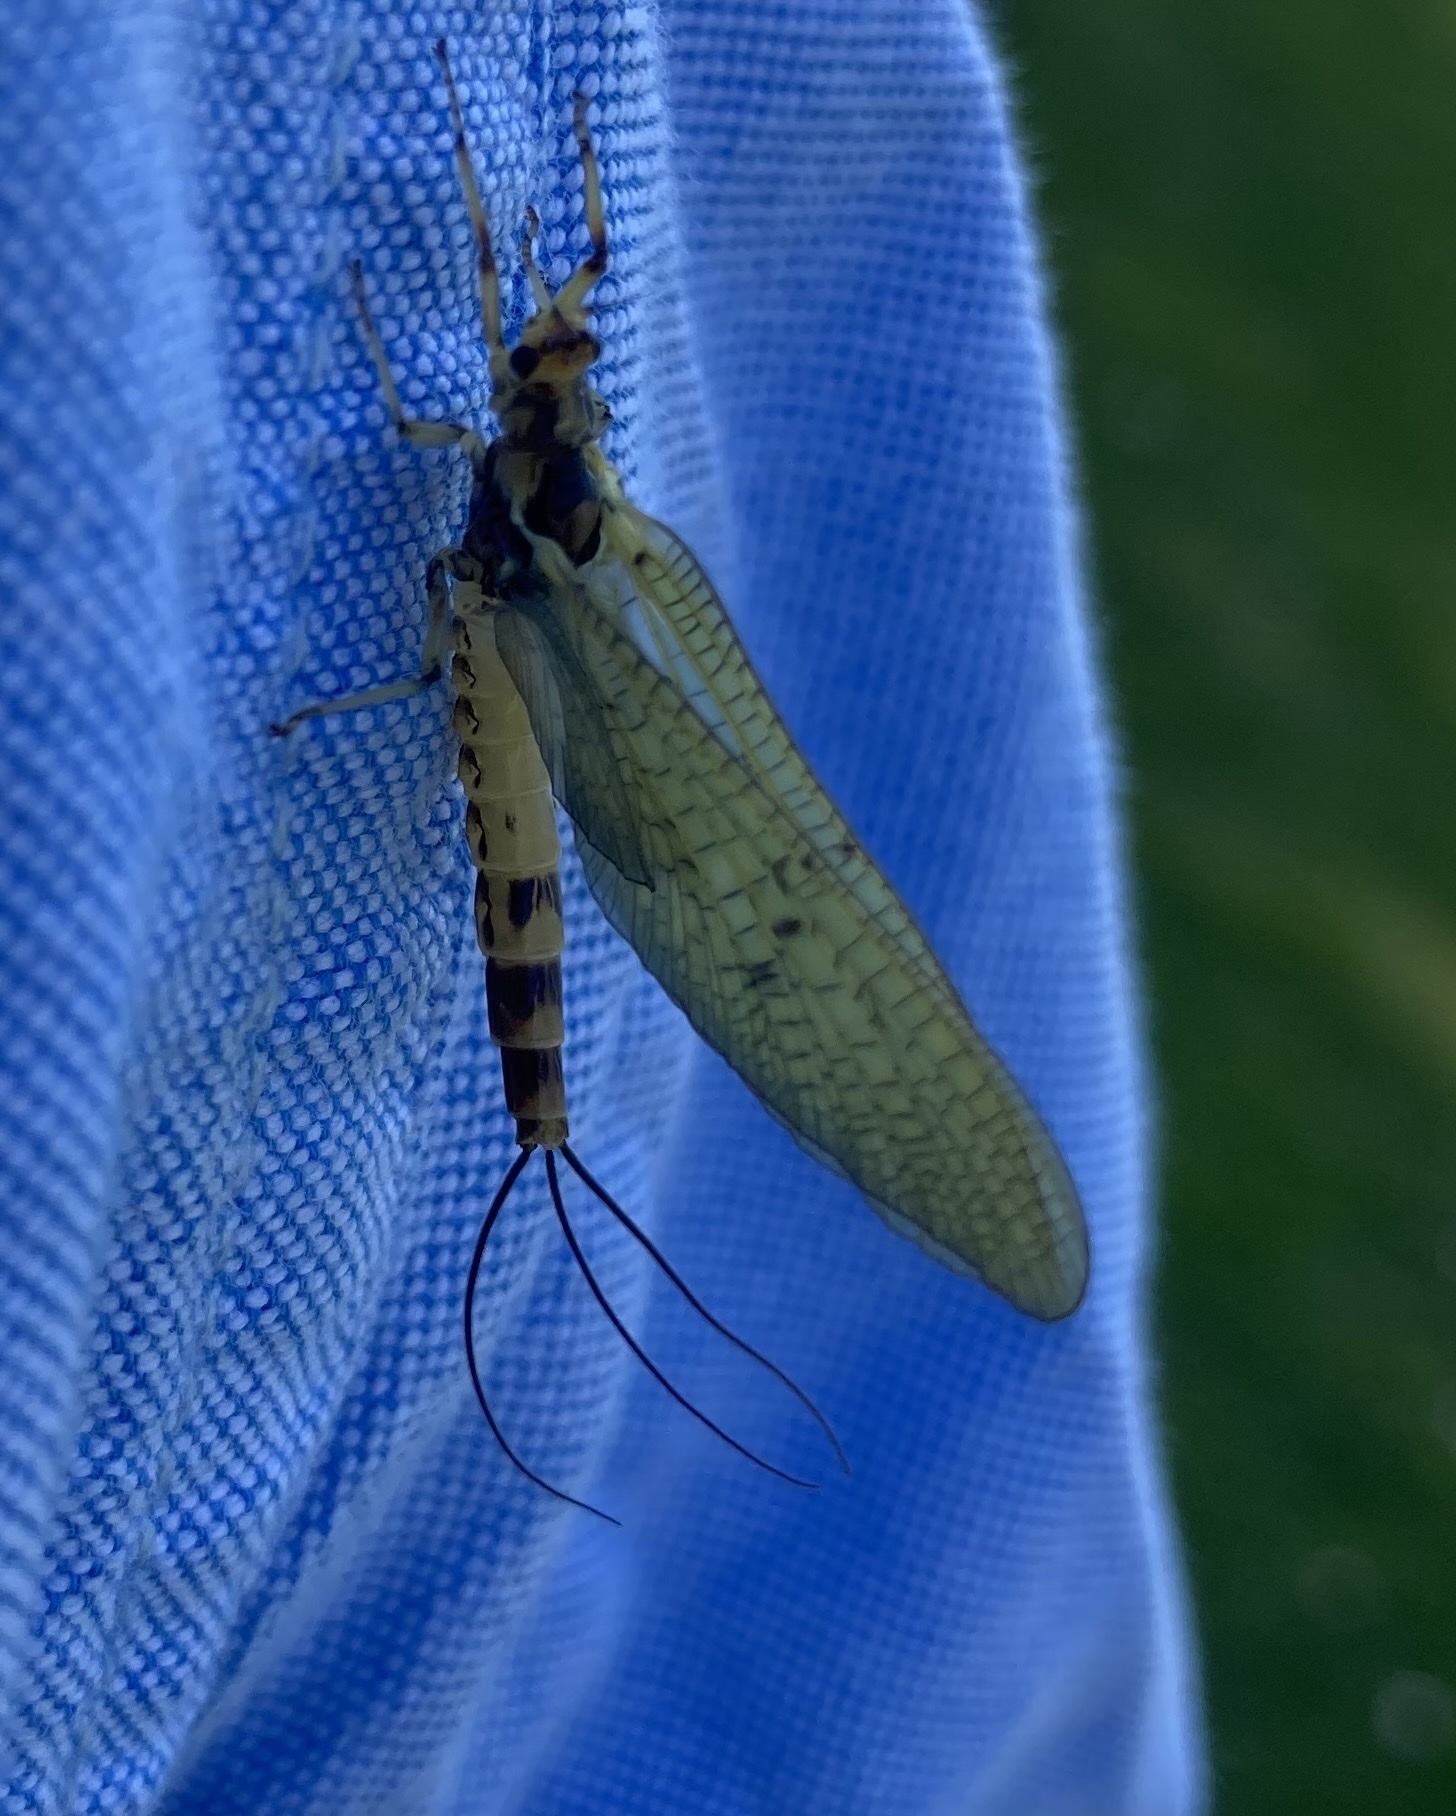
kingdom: Animalia
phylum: Arthropoda
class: Insecta
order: Ephemeroptera
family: Ephemeridae
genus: Ephemera
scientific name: Ephemera danica
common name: Green dun
